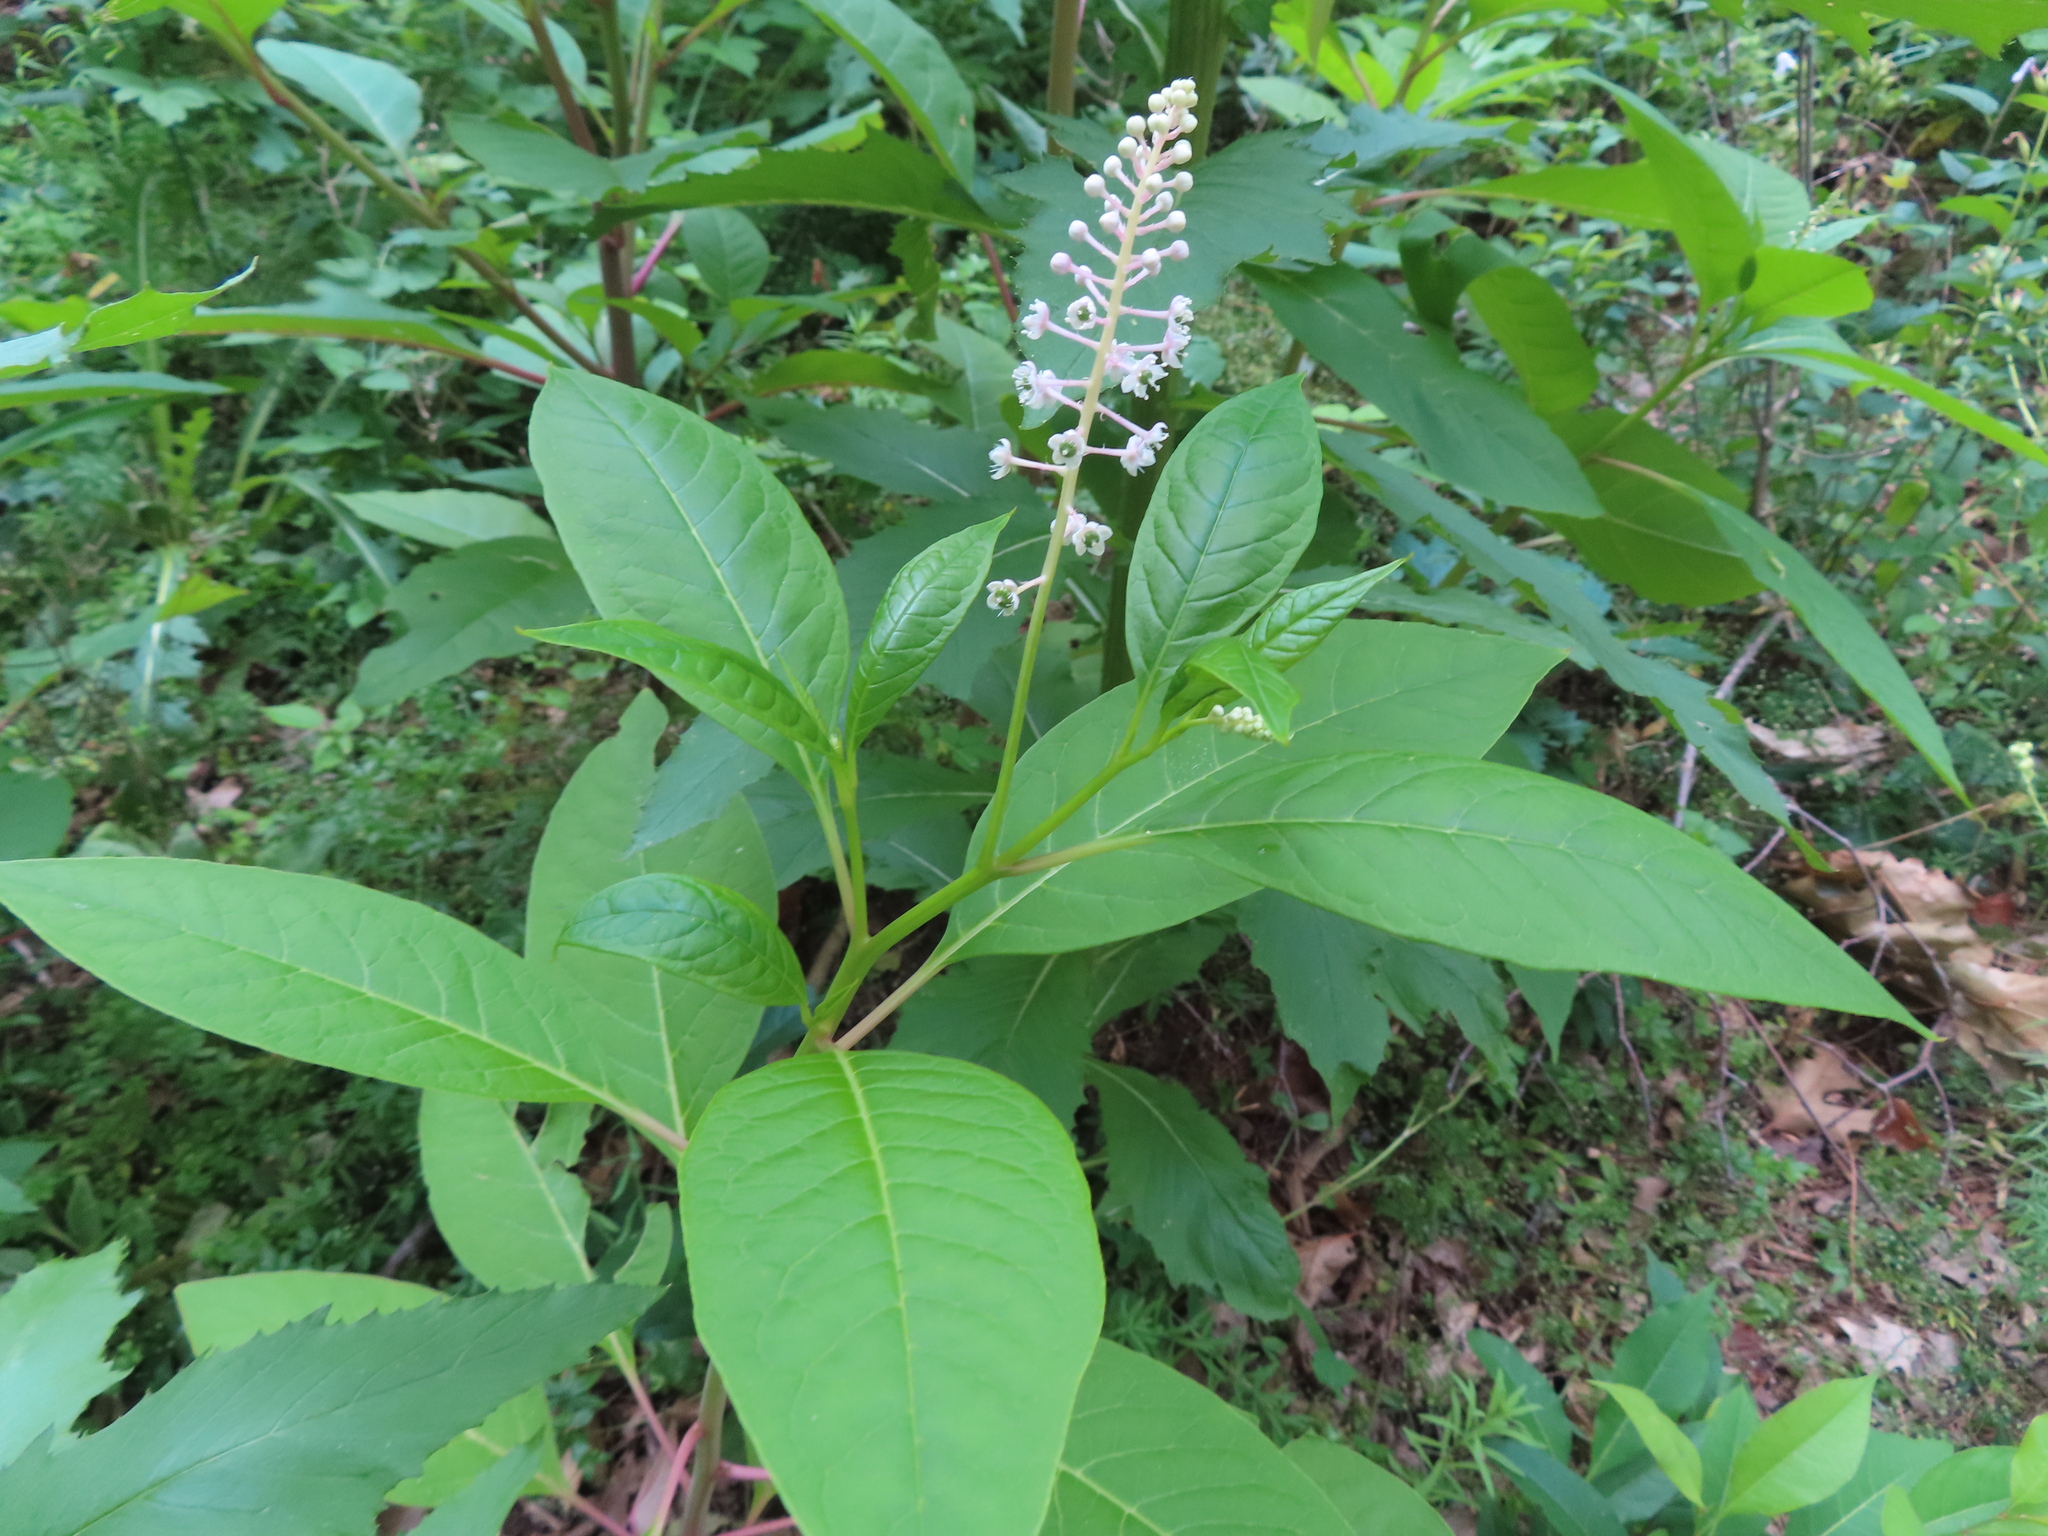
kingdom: Plantae
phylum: Tracheophyta
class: Magnoliopsida
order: Caryophyllales
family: Phytolaccaceae
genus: Phytolacca
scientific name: Phytolacca americana
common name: American pokeweed
